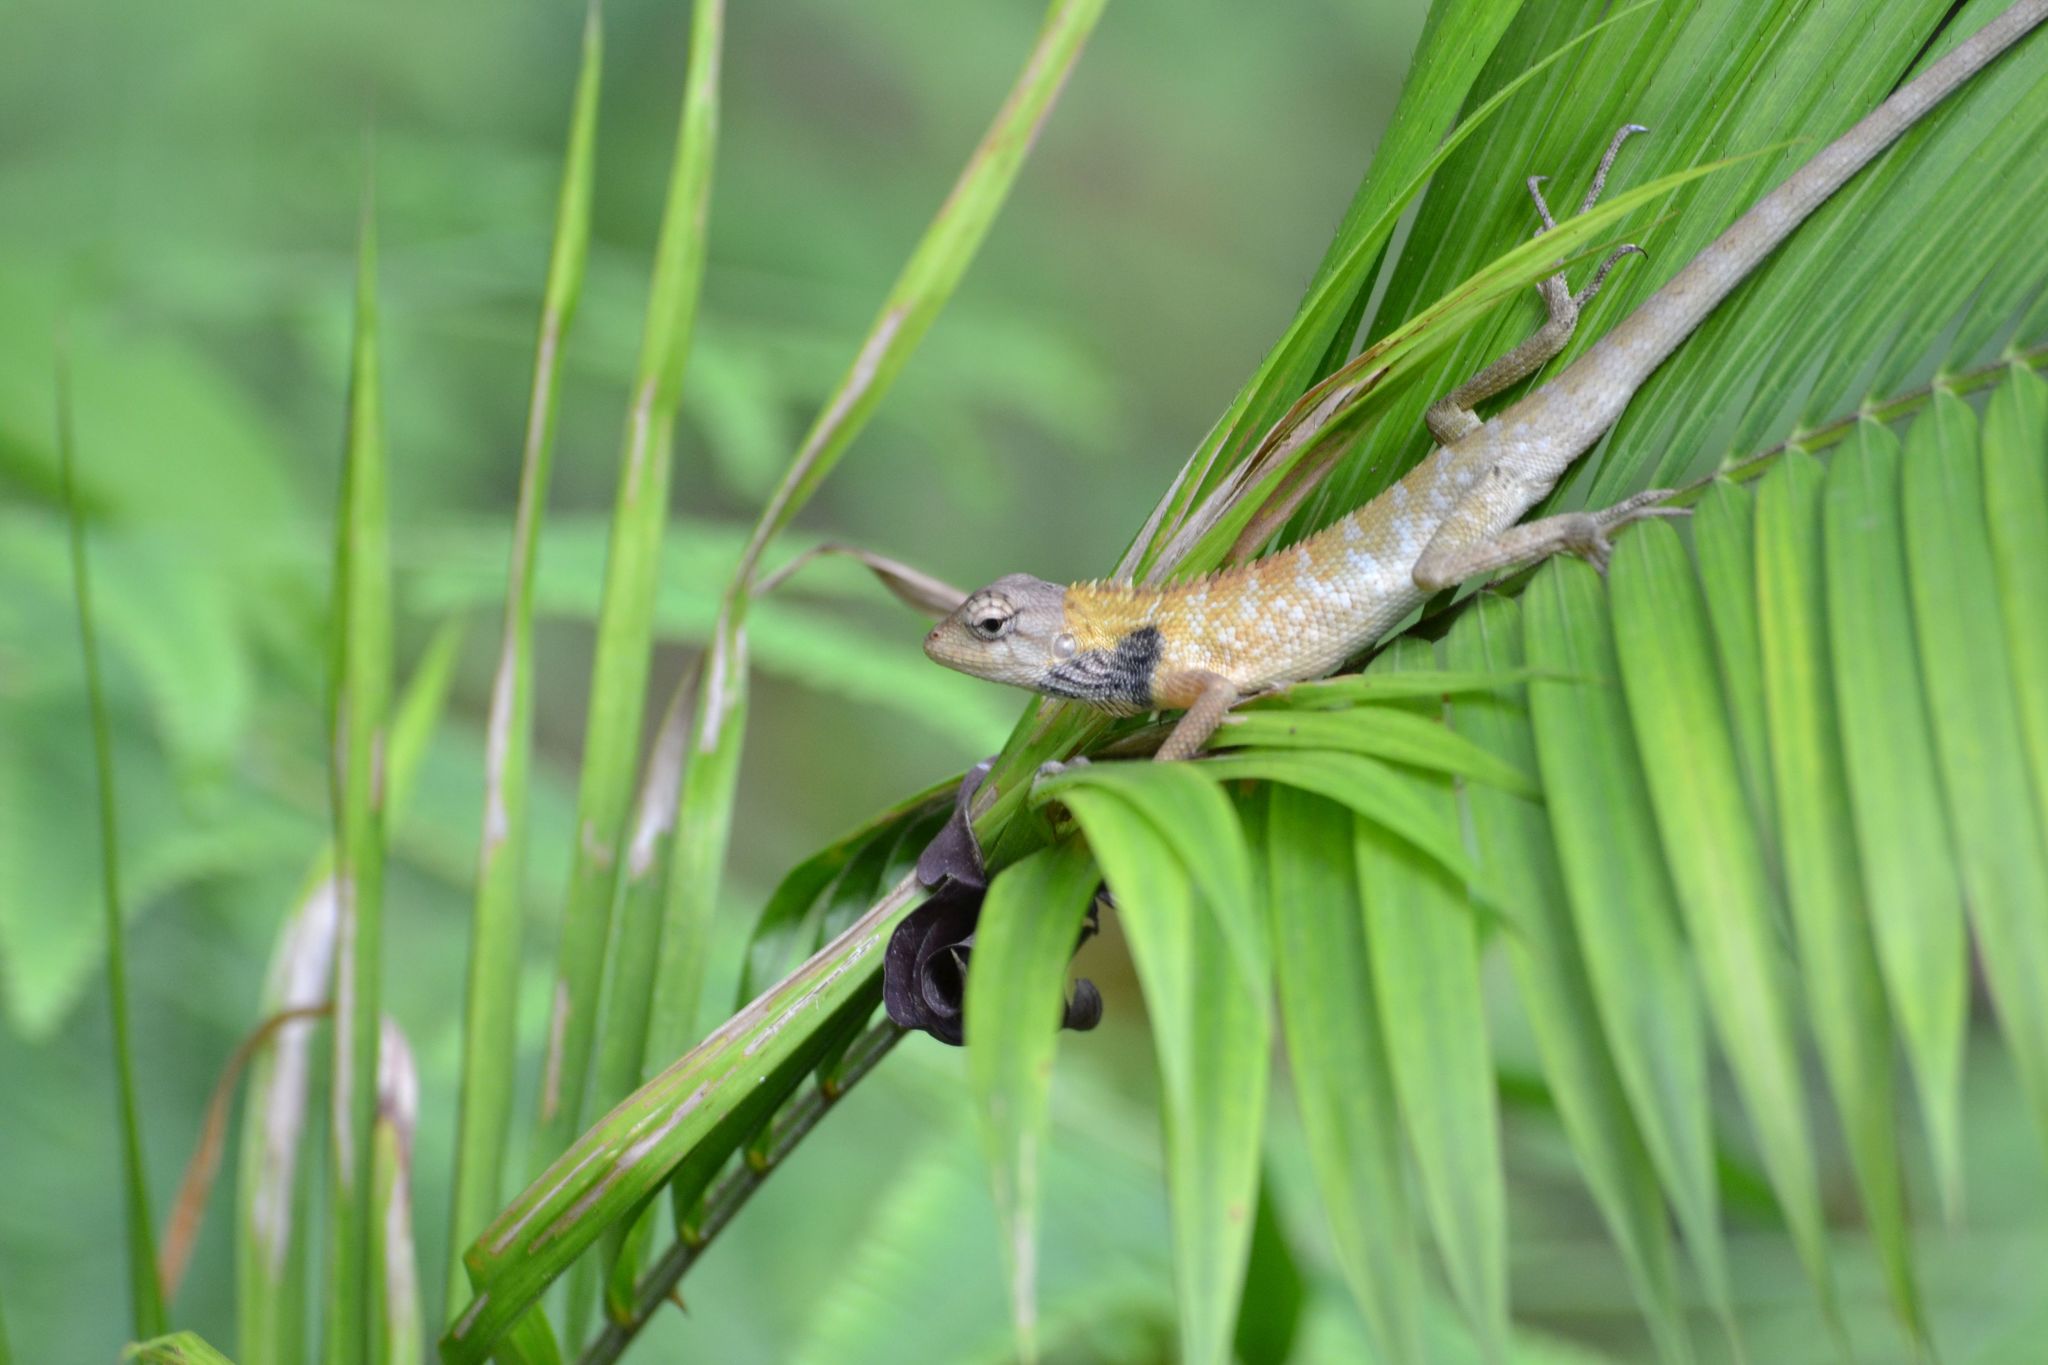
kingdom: Animalia
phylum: Chordata
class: Squamata
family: Agamidae
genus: Calotes
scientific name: Calotes versicolor
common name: Oriental garden lizard
